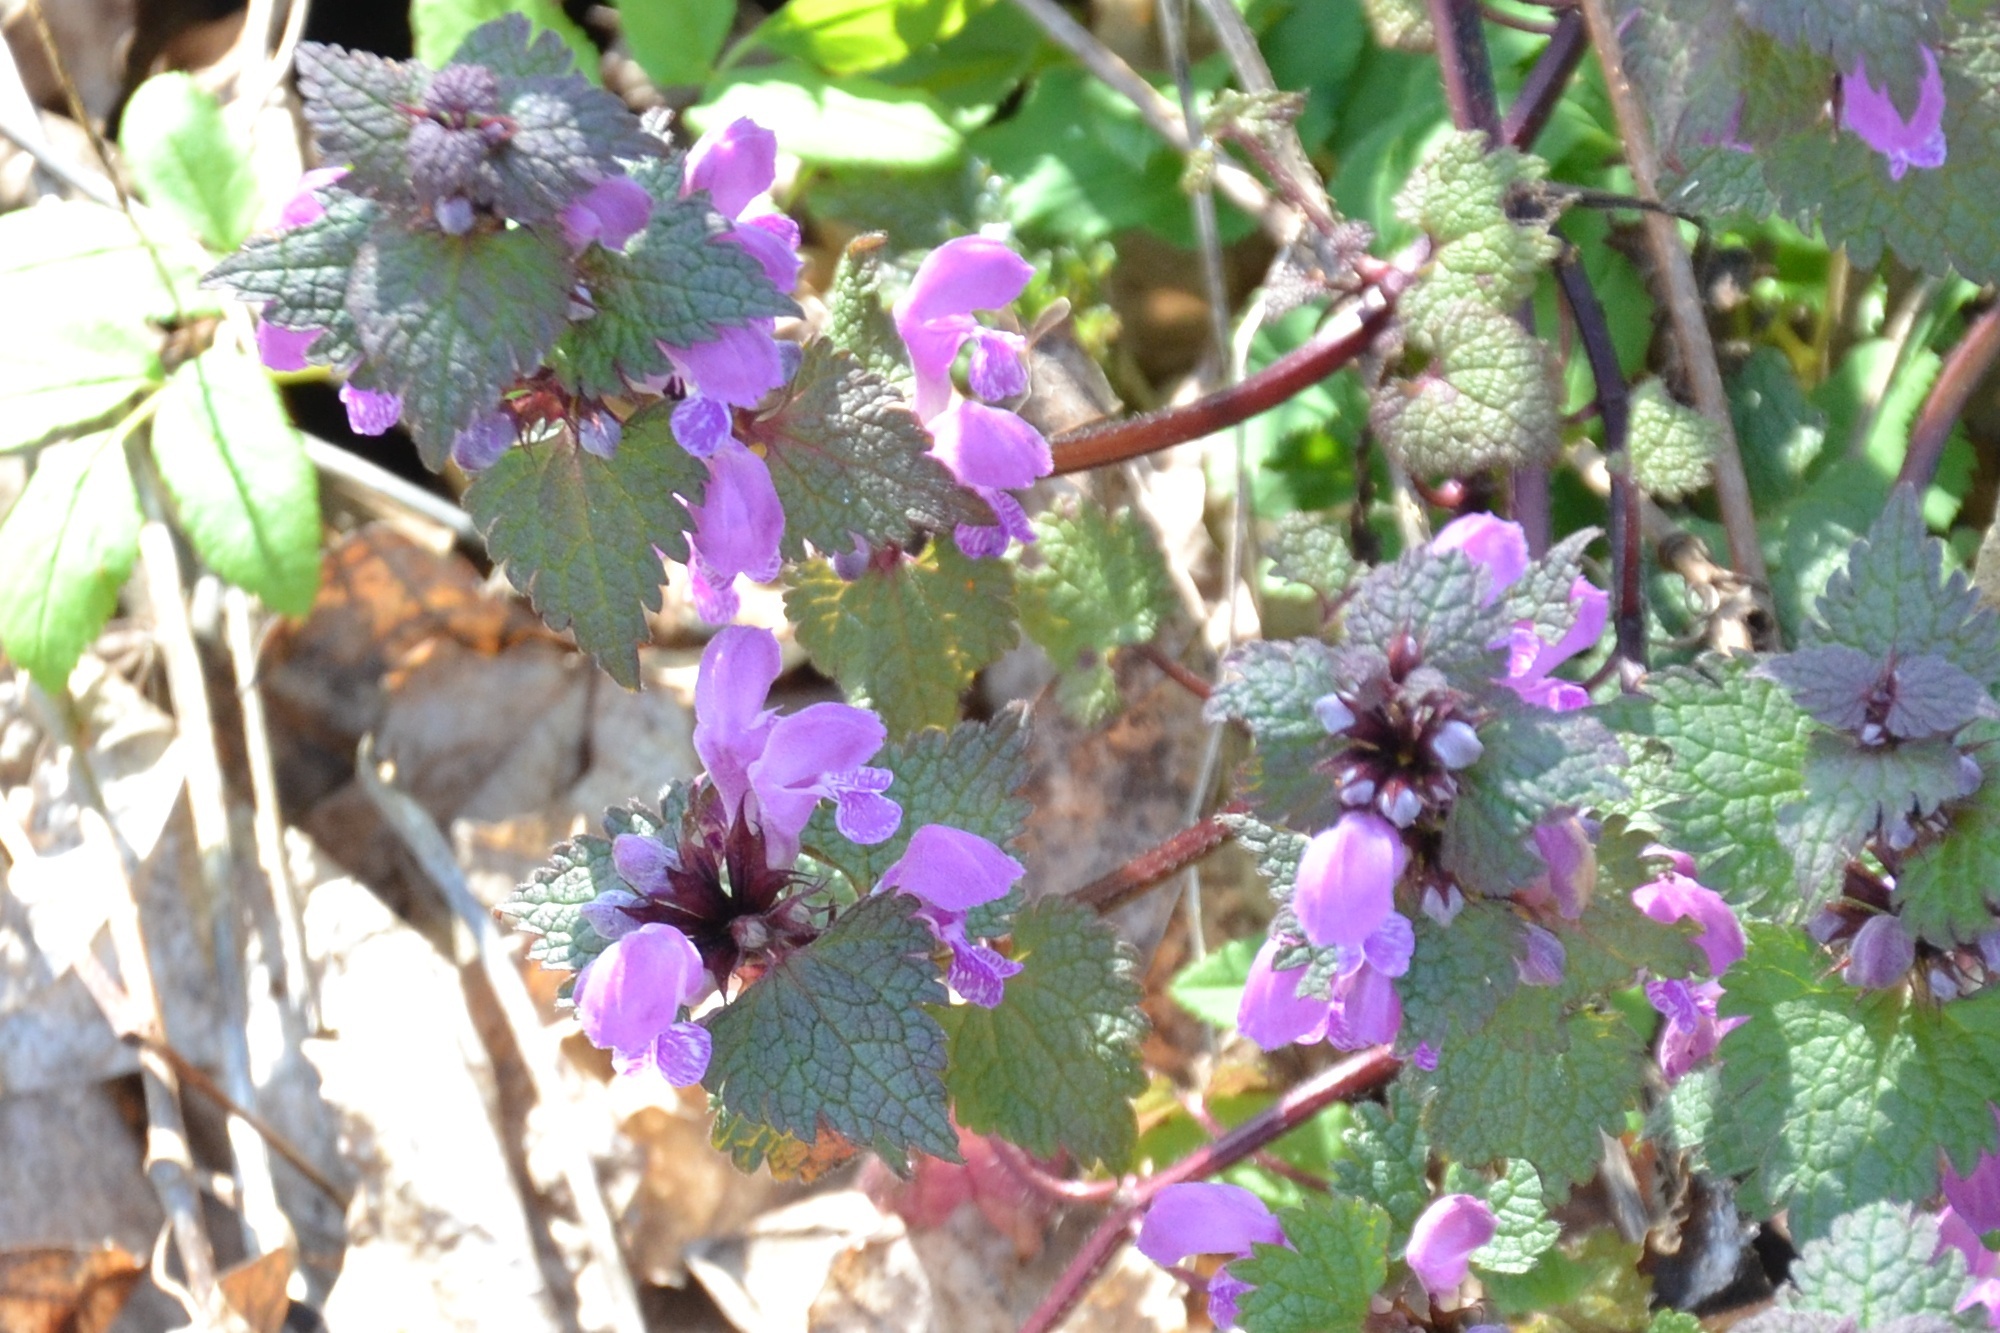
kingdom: Plantae
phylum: Tracheophyta
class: Magnoliopsida
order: Lamiales
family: Lamiaceae
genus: Lamium
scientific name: Lamium maculatum
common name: Spotted dead-nettle
